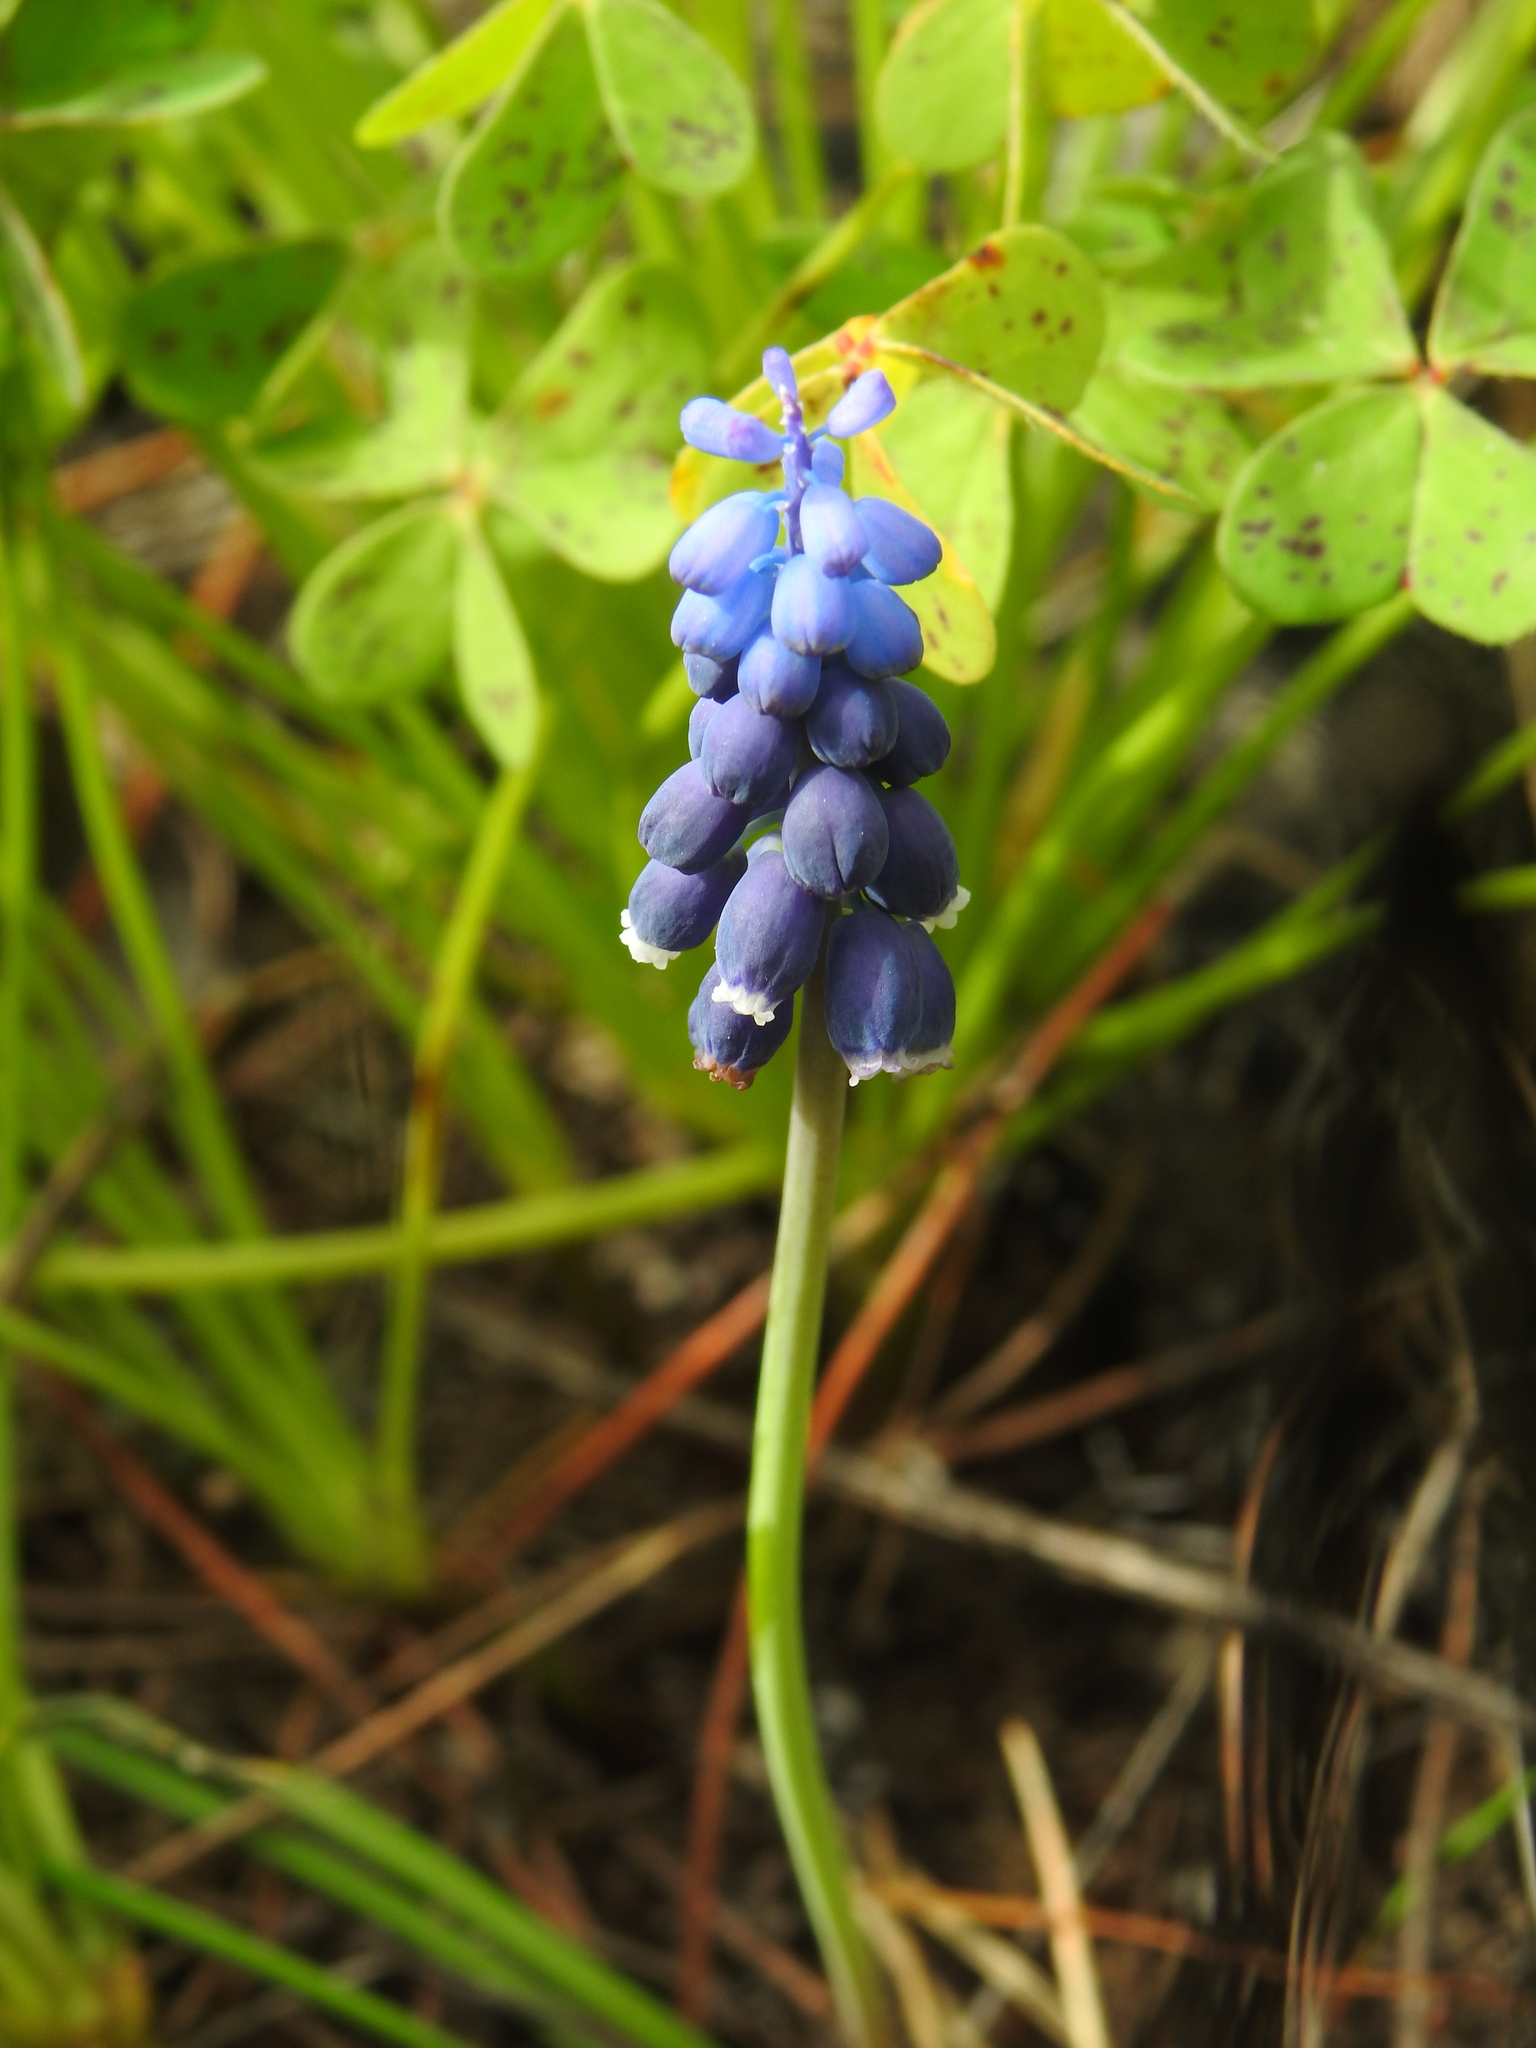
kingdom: Plantae
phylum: Tracheophyta
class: Liliopsida
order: Asparagales
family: Asparagaceae
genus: Muscari
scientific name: Muscari neglectum
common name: Grape-hyacinth
